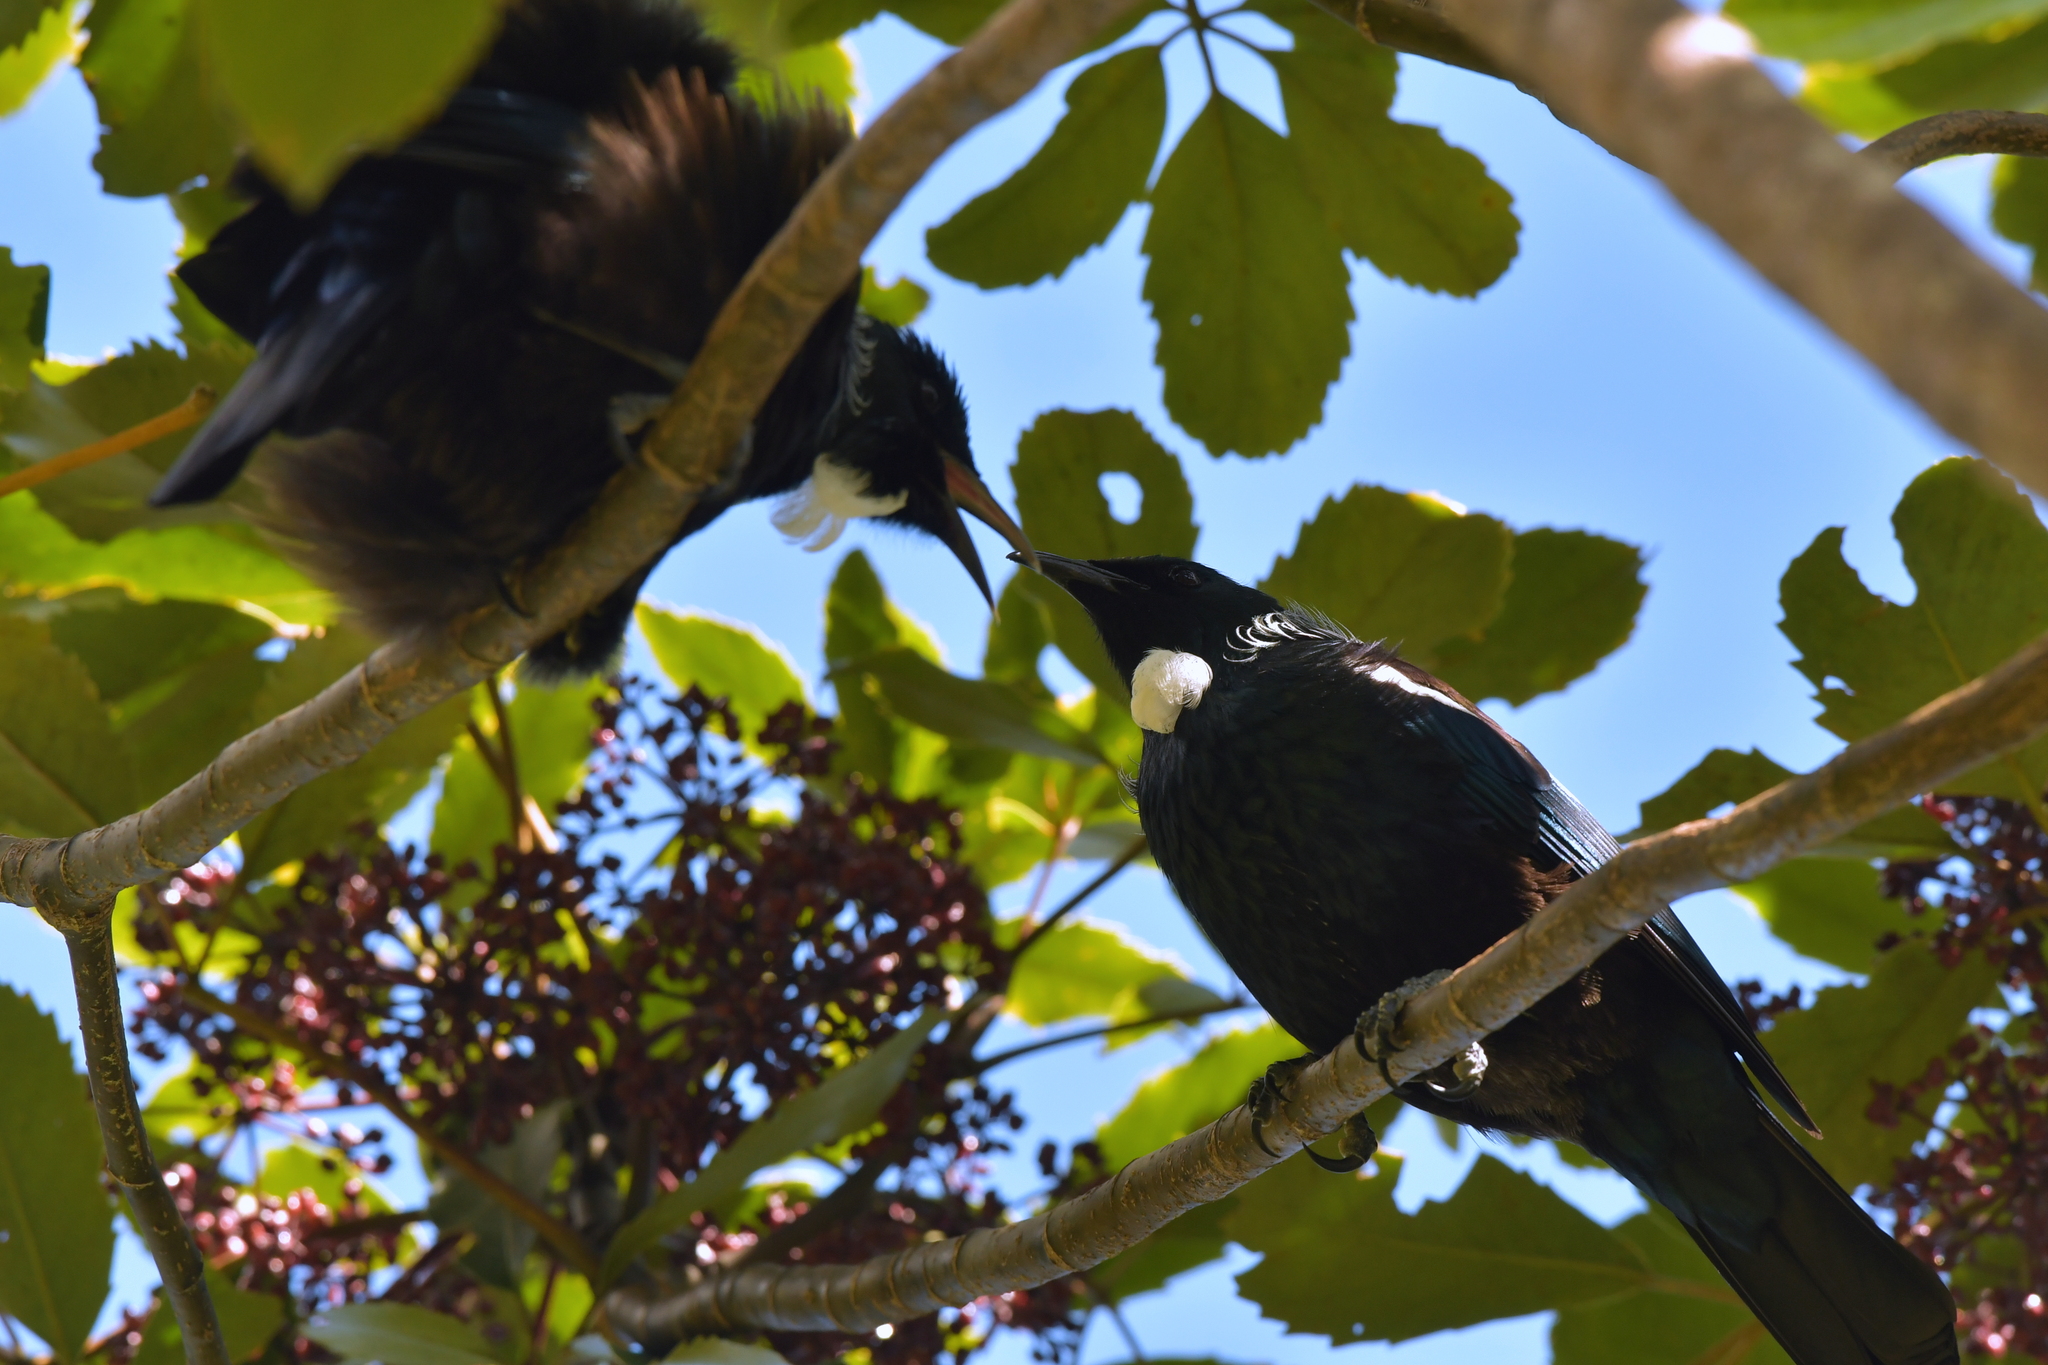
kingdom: Animalia
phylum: Chordata
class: Aves
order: Passeriformes
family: Meliphagidae
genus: Prosthemadera
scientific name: Prosthemadera novaeseelandiae
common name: Tui
